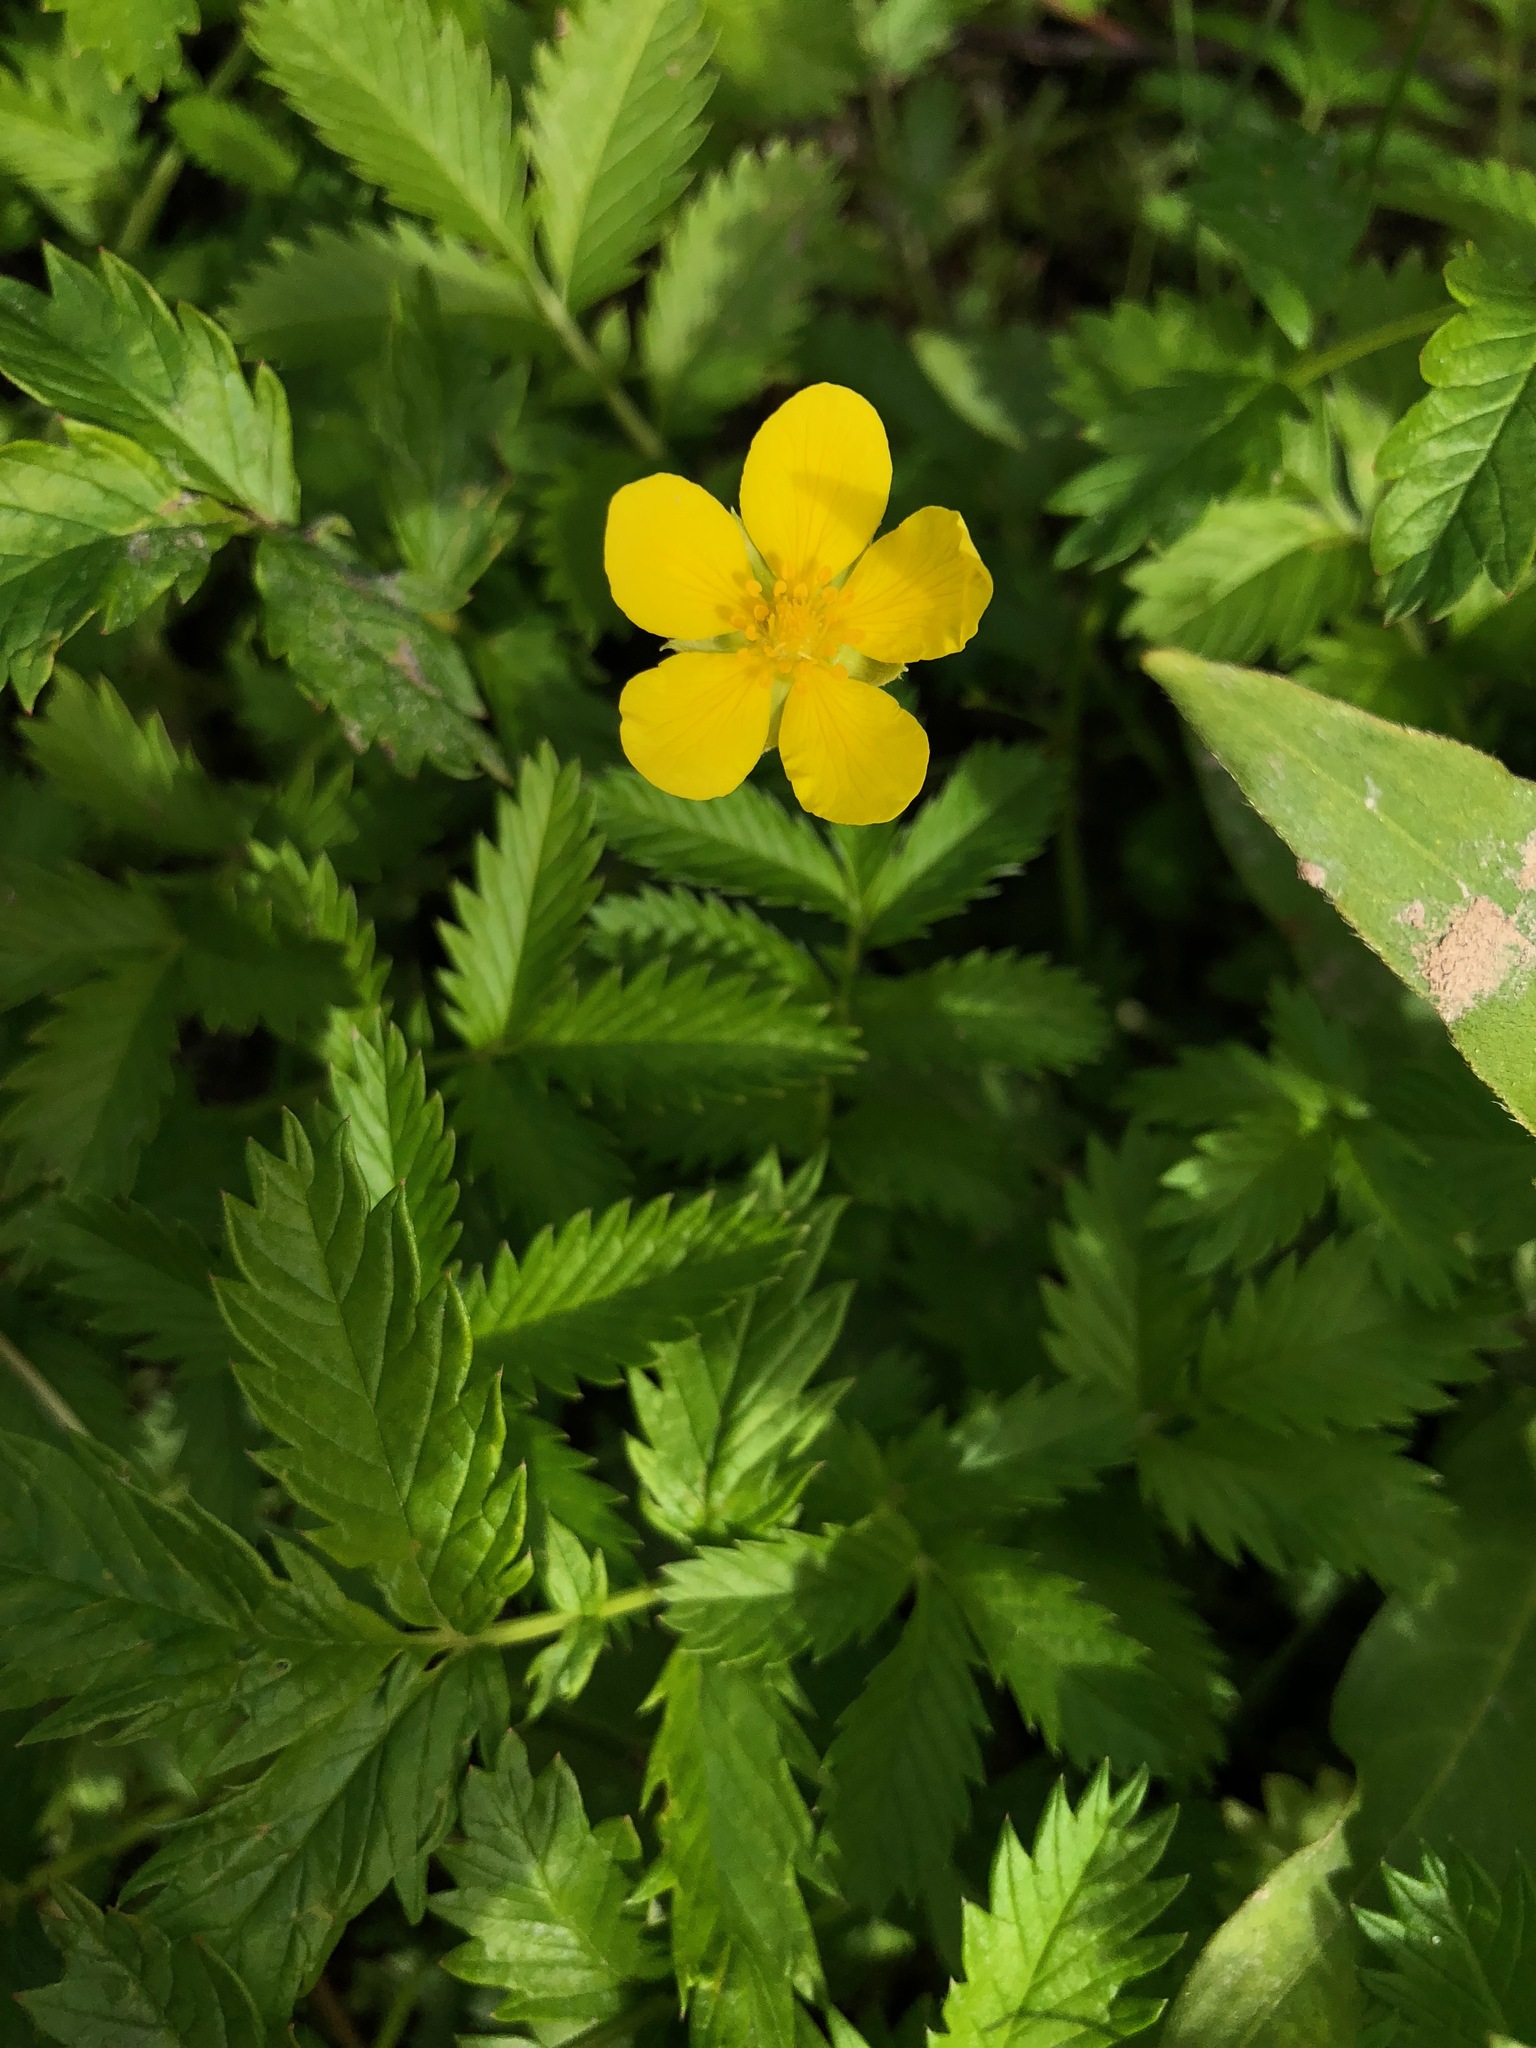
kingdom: Plantae
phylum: Tracheophyta
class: Magnoliopsida
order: Rosales
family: Rosaceae
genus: Argentina
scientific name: Argentina anserina
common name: Common silverweed
